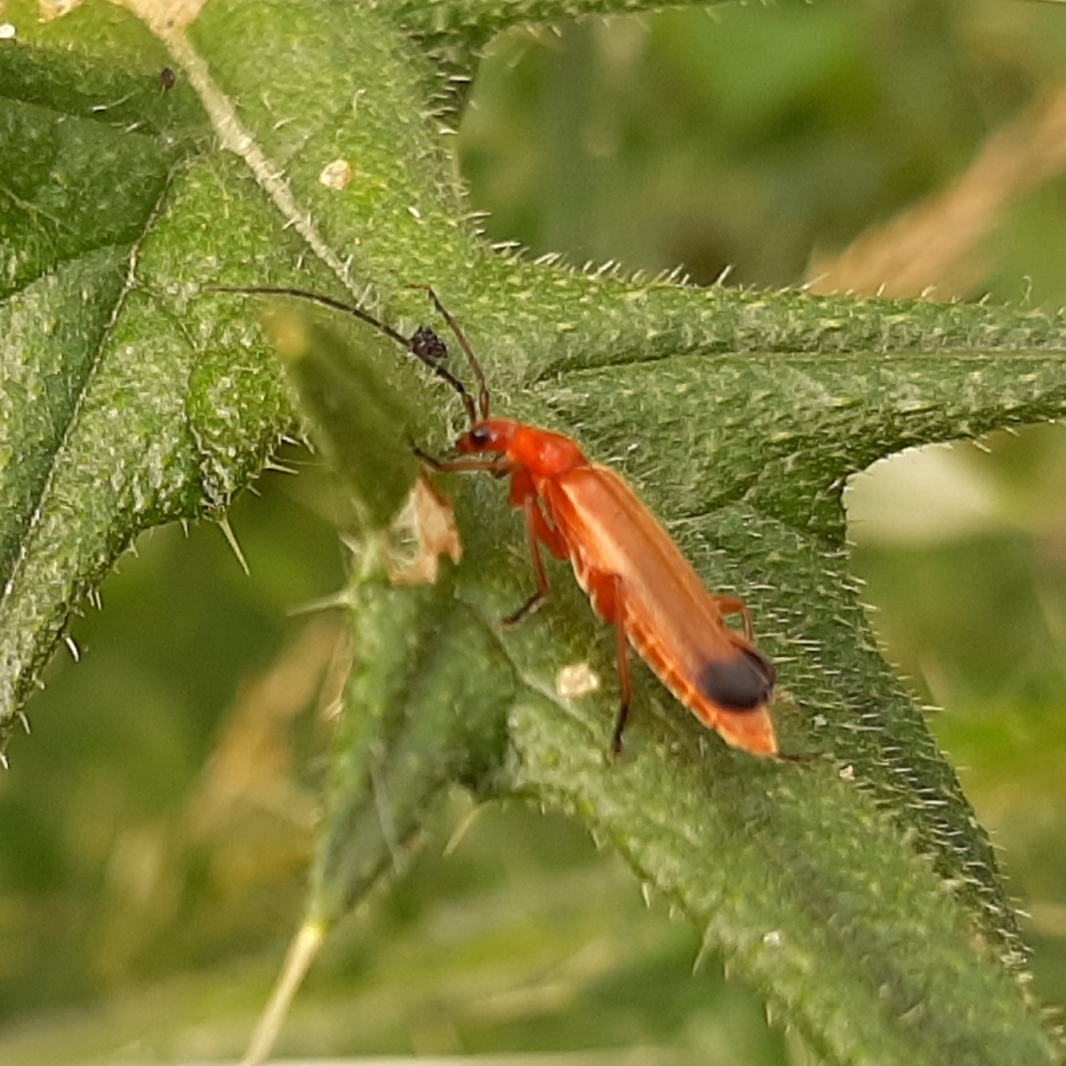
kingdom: Animalia
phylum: Arthropoda
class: Insecta
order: Coleoptera
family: Cantharidae
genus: Rhagonycha
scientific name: Rhagonycha fulva
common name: Common red soldier beetle
